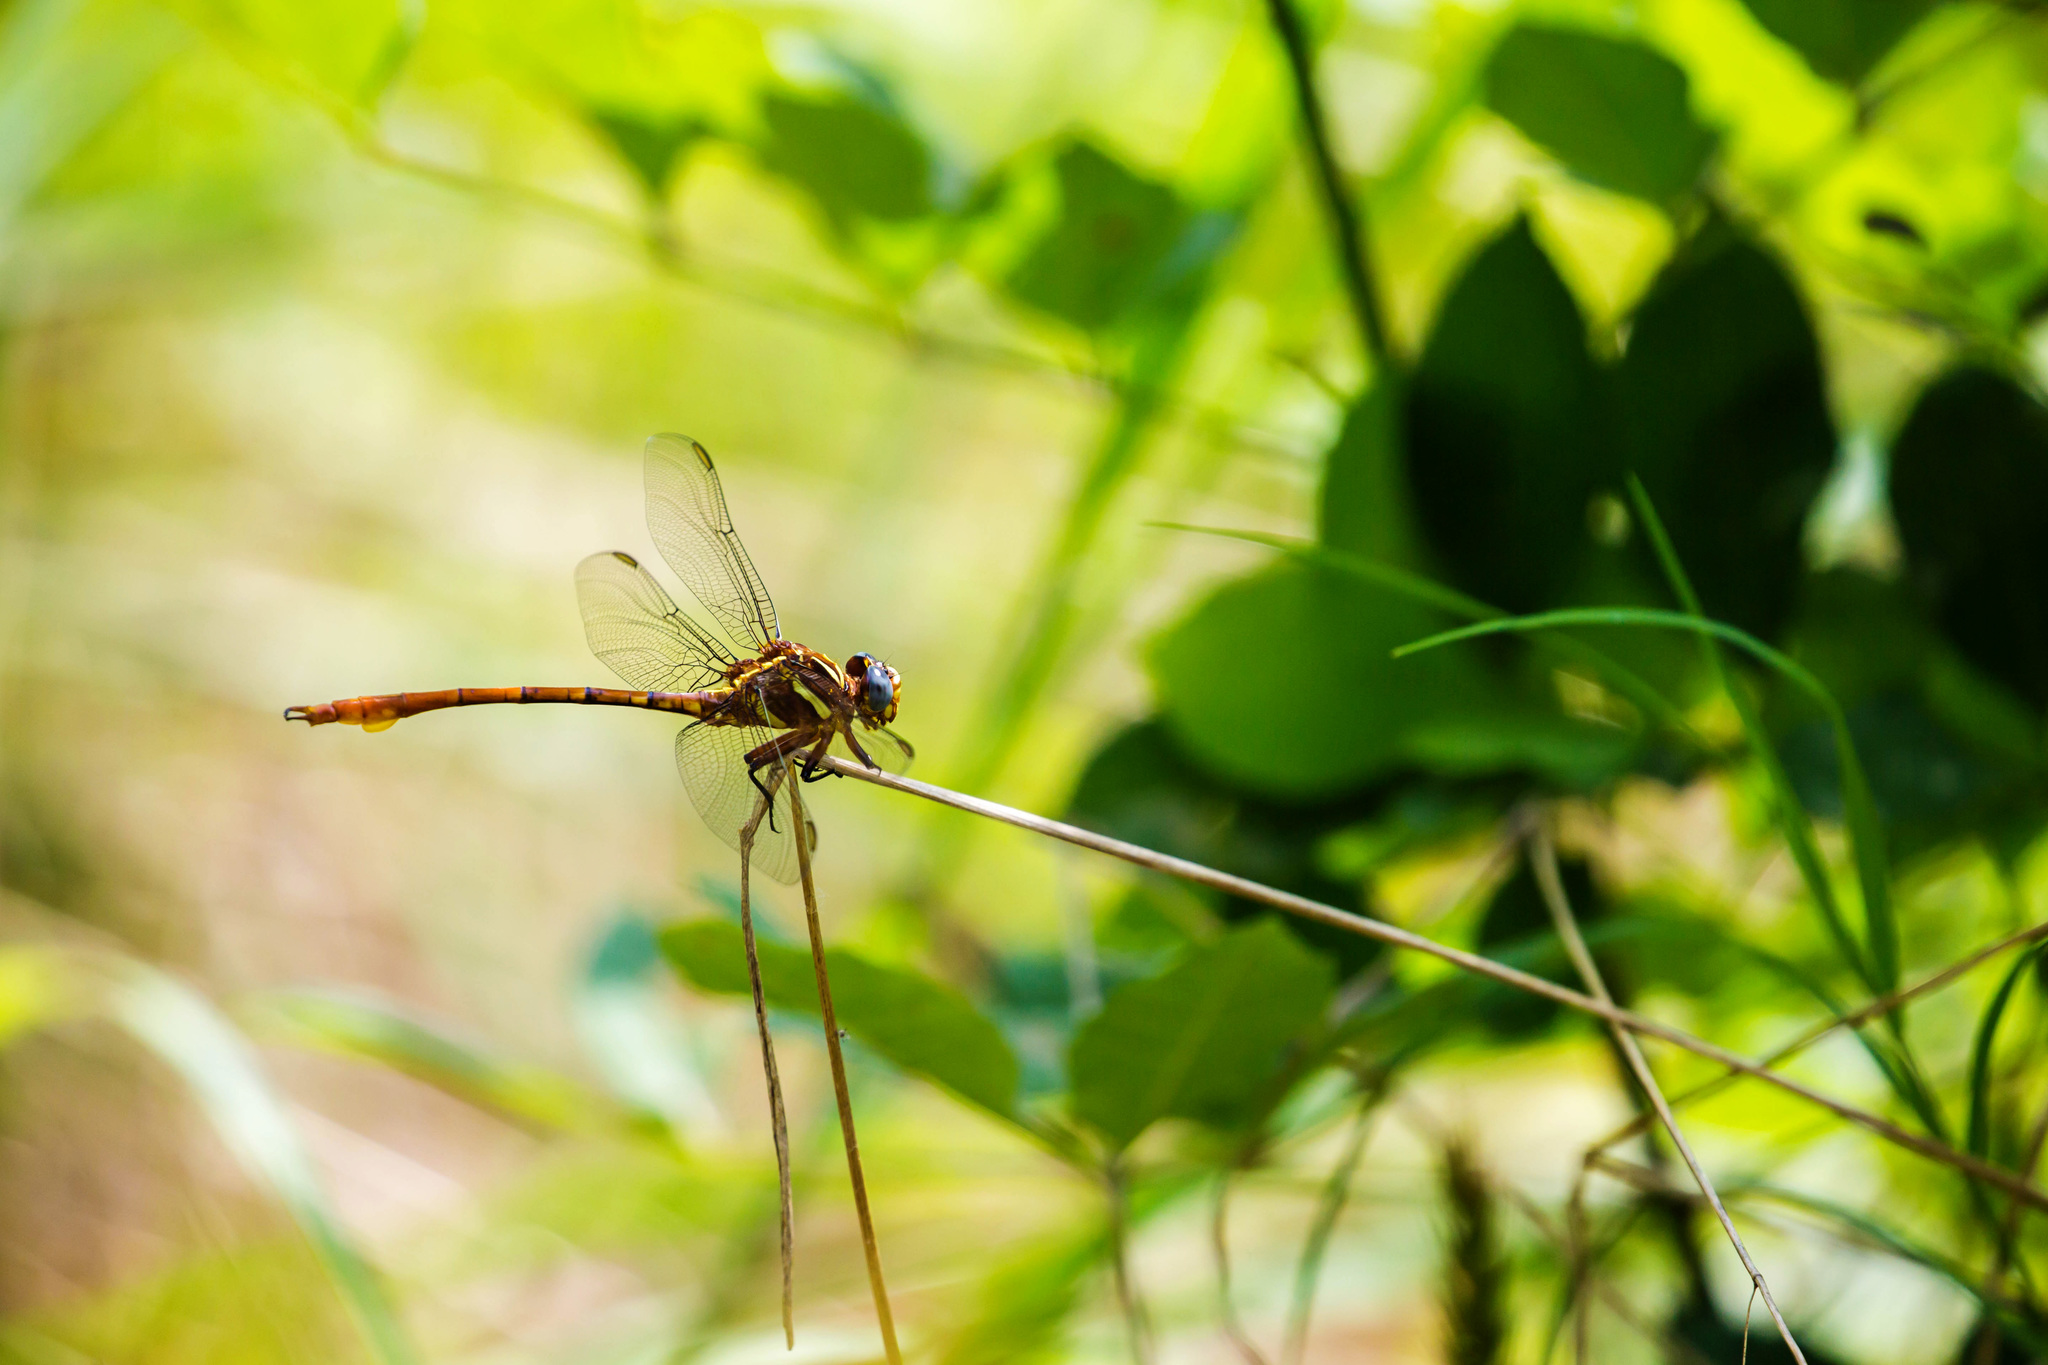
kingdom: Animalia
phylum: Arthropoda
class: Insecta
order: Odonata
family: Gomphidae
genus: Aphylla
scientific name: Aphylla williamsoni
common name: Two-striped forceptail
